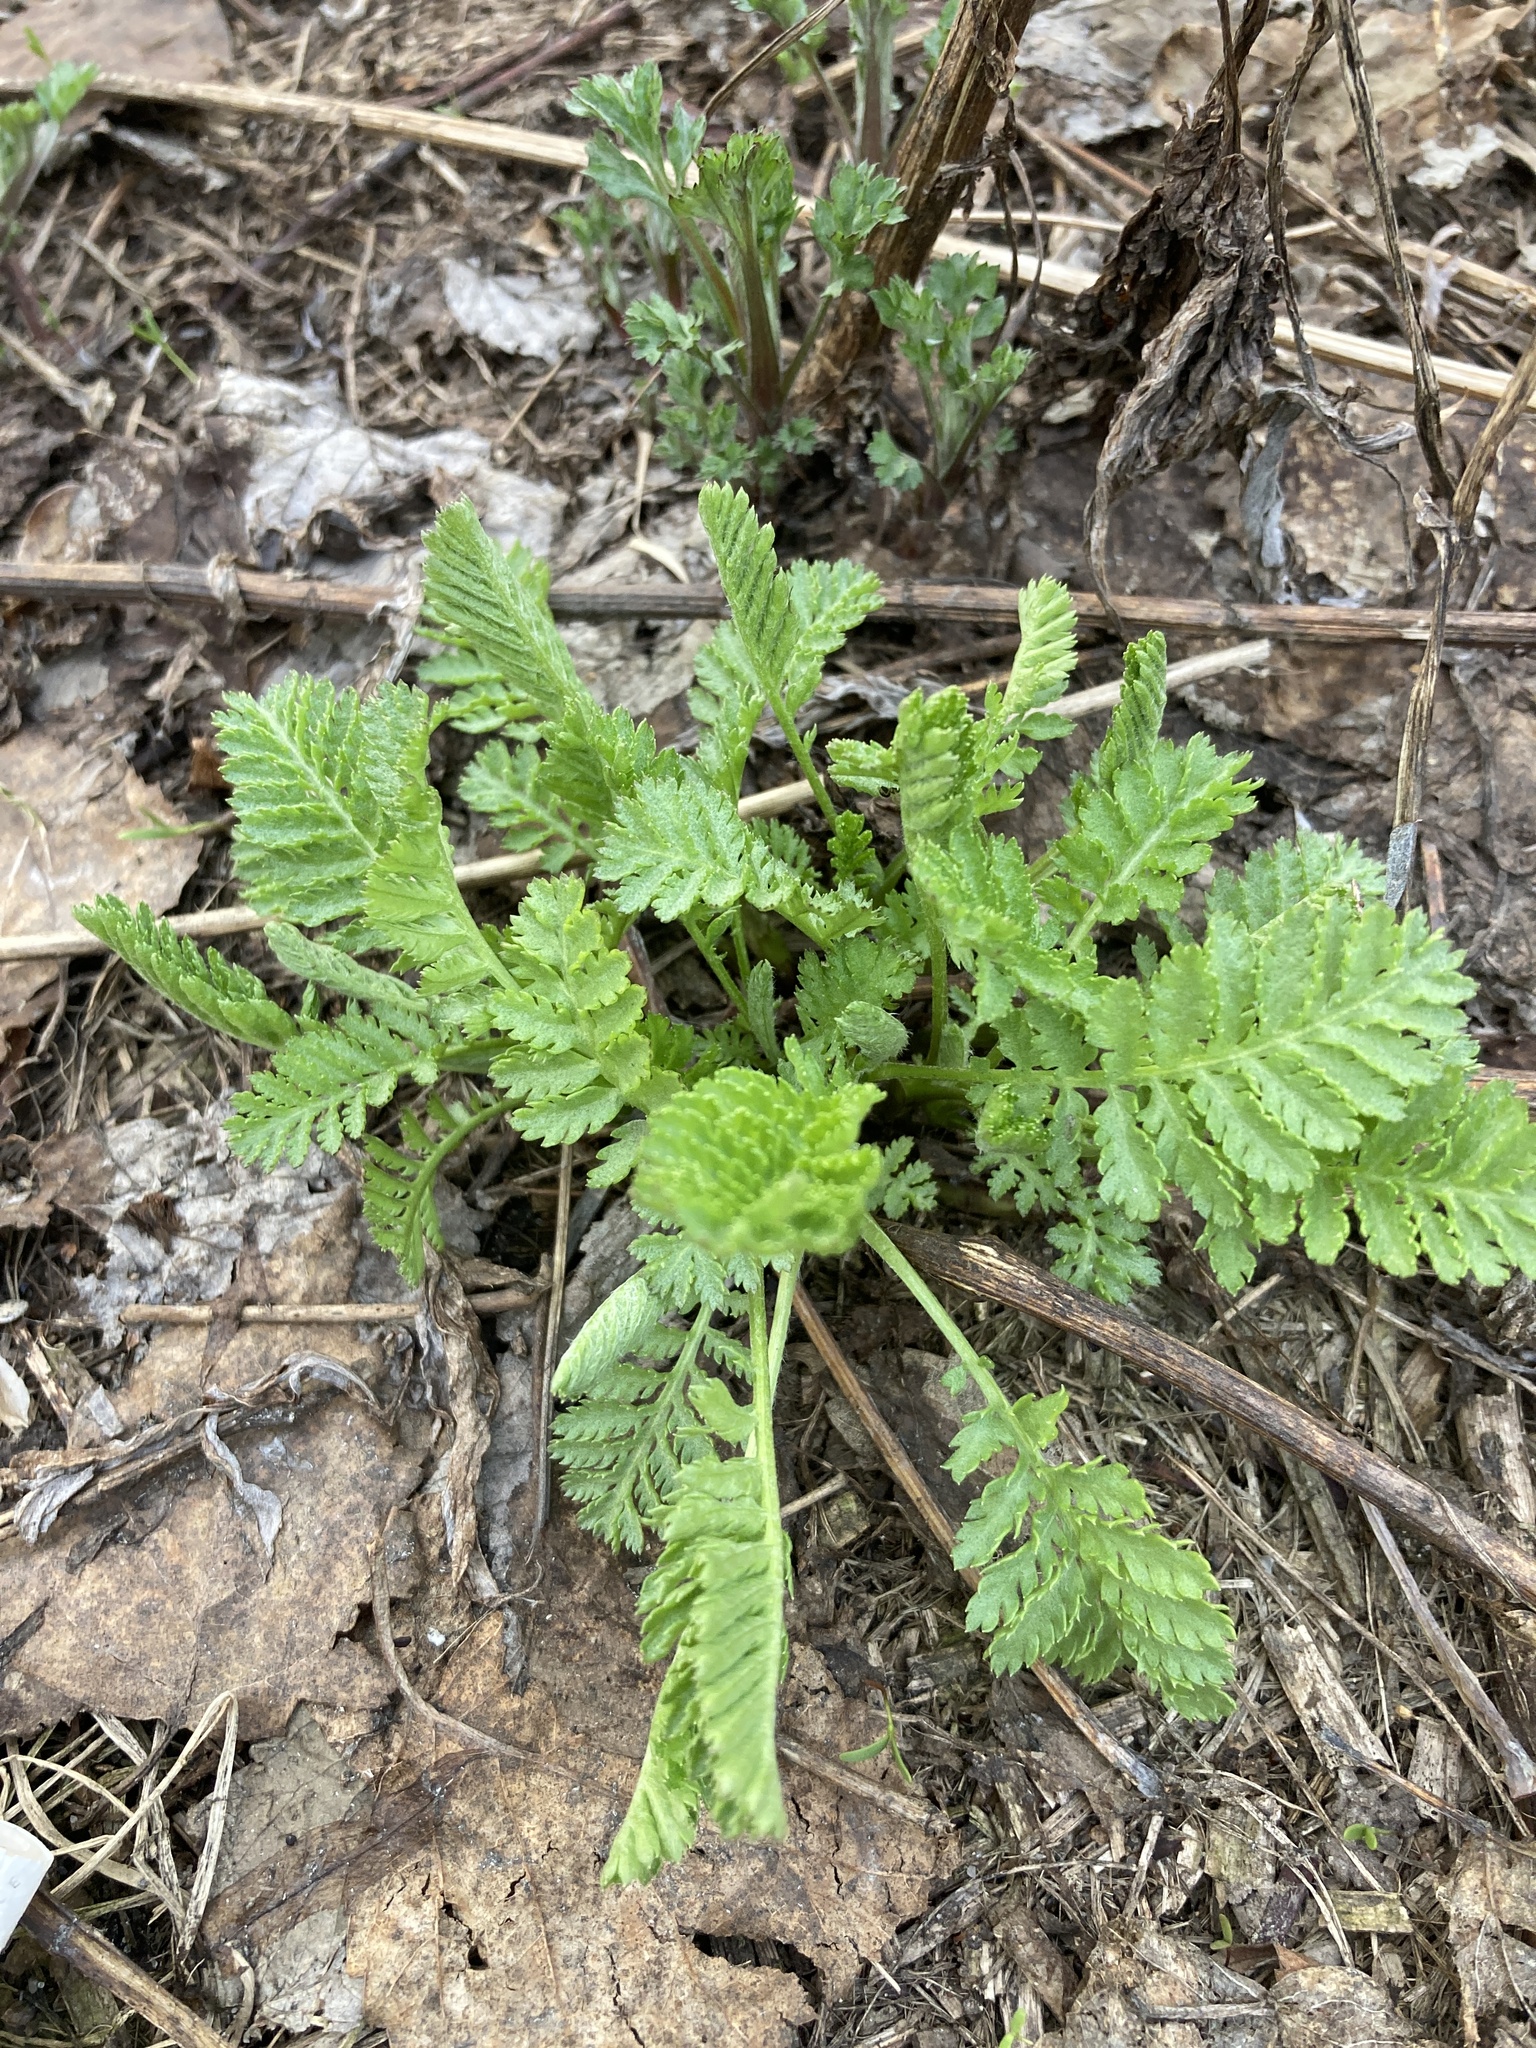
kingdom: Plantae
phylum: Tracheophyta
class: Magnoliopsida
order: Asterales
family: Asteraceae
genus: Tanacetum
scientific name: Tanacetum vulgare
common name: Common tansy
